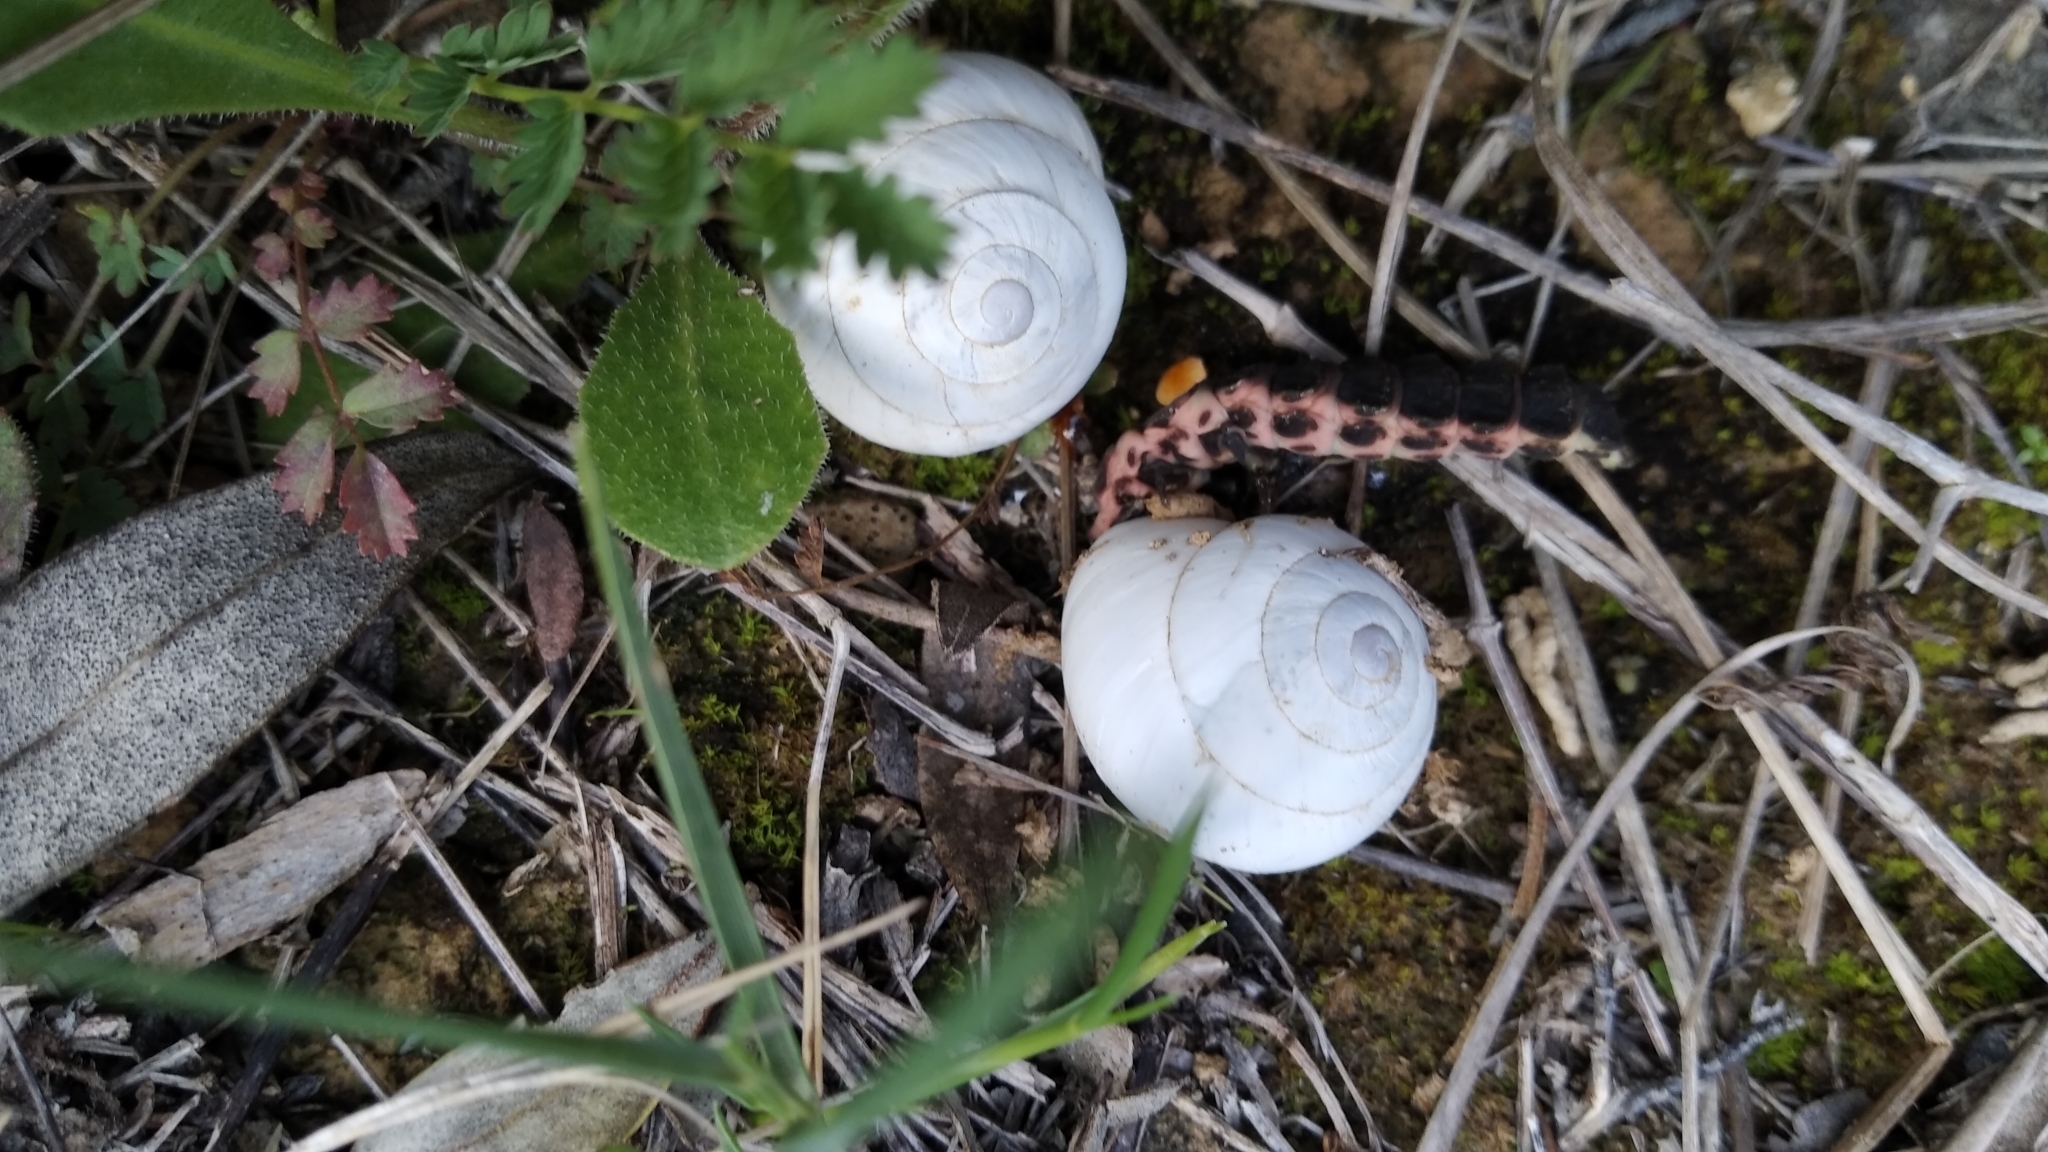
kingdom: Animalia
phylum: Arthropoda
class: Insecta
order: Coleoptera
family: Lampyridae
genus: Nyctophila
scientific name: Nyctophila reichii
